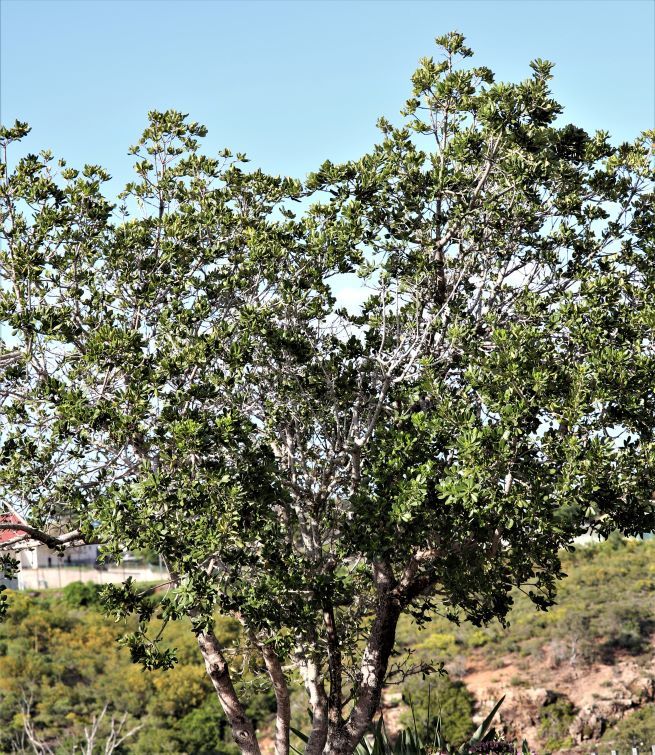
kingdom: Plantae
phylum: Tracheophyta
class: Magnoliopsida
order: Apiales
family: Pittosporaceae
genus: Pittosporum
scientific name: Pittosporum viridiflorum
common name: Cape cheesewood
